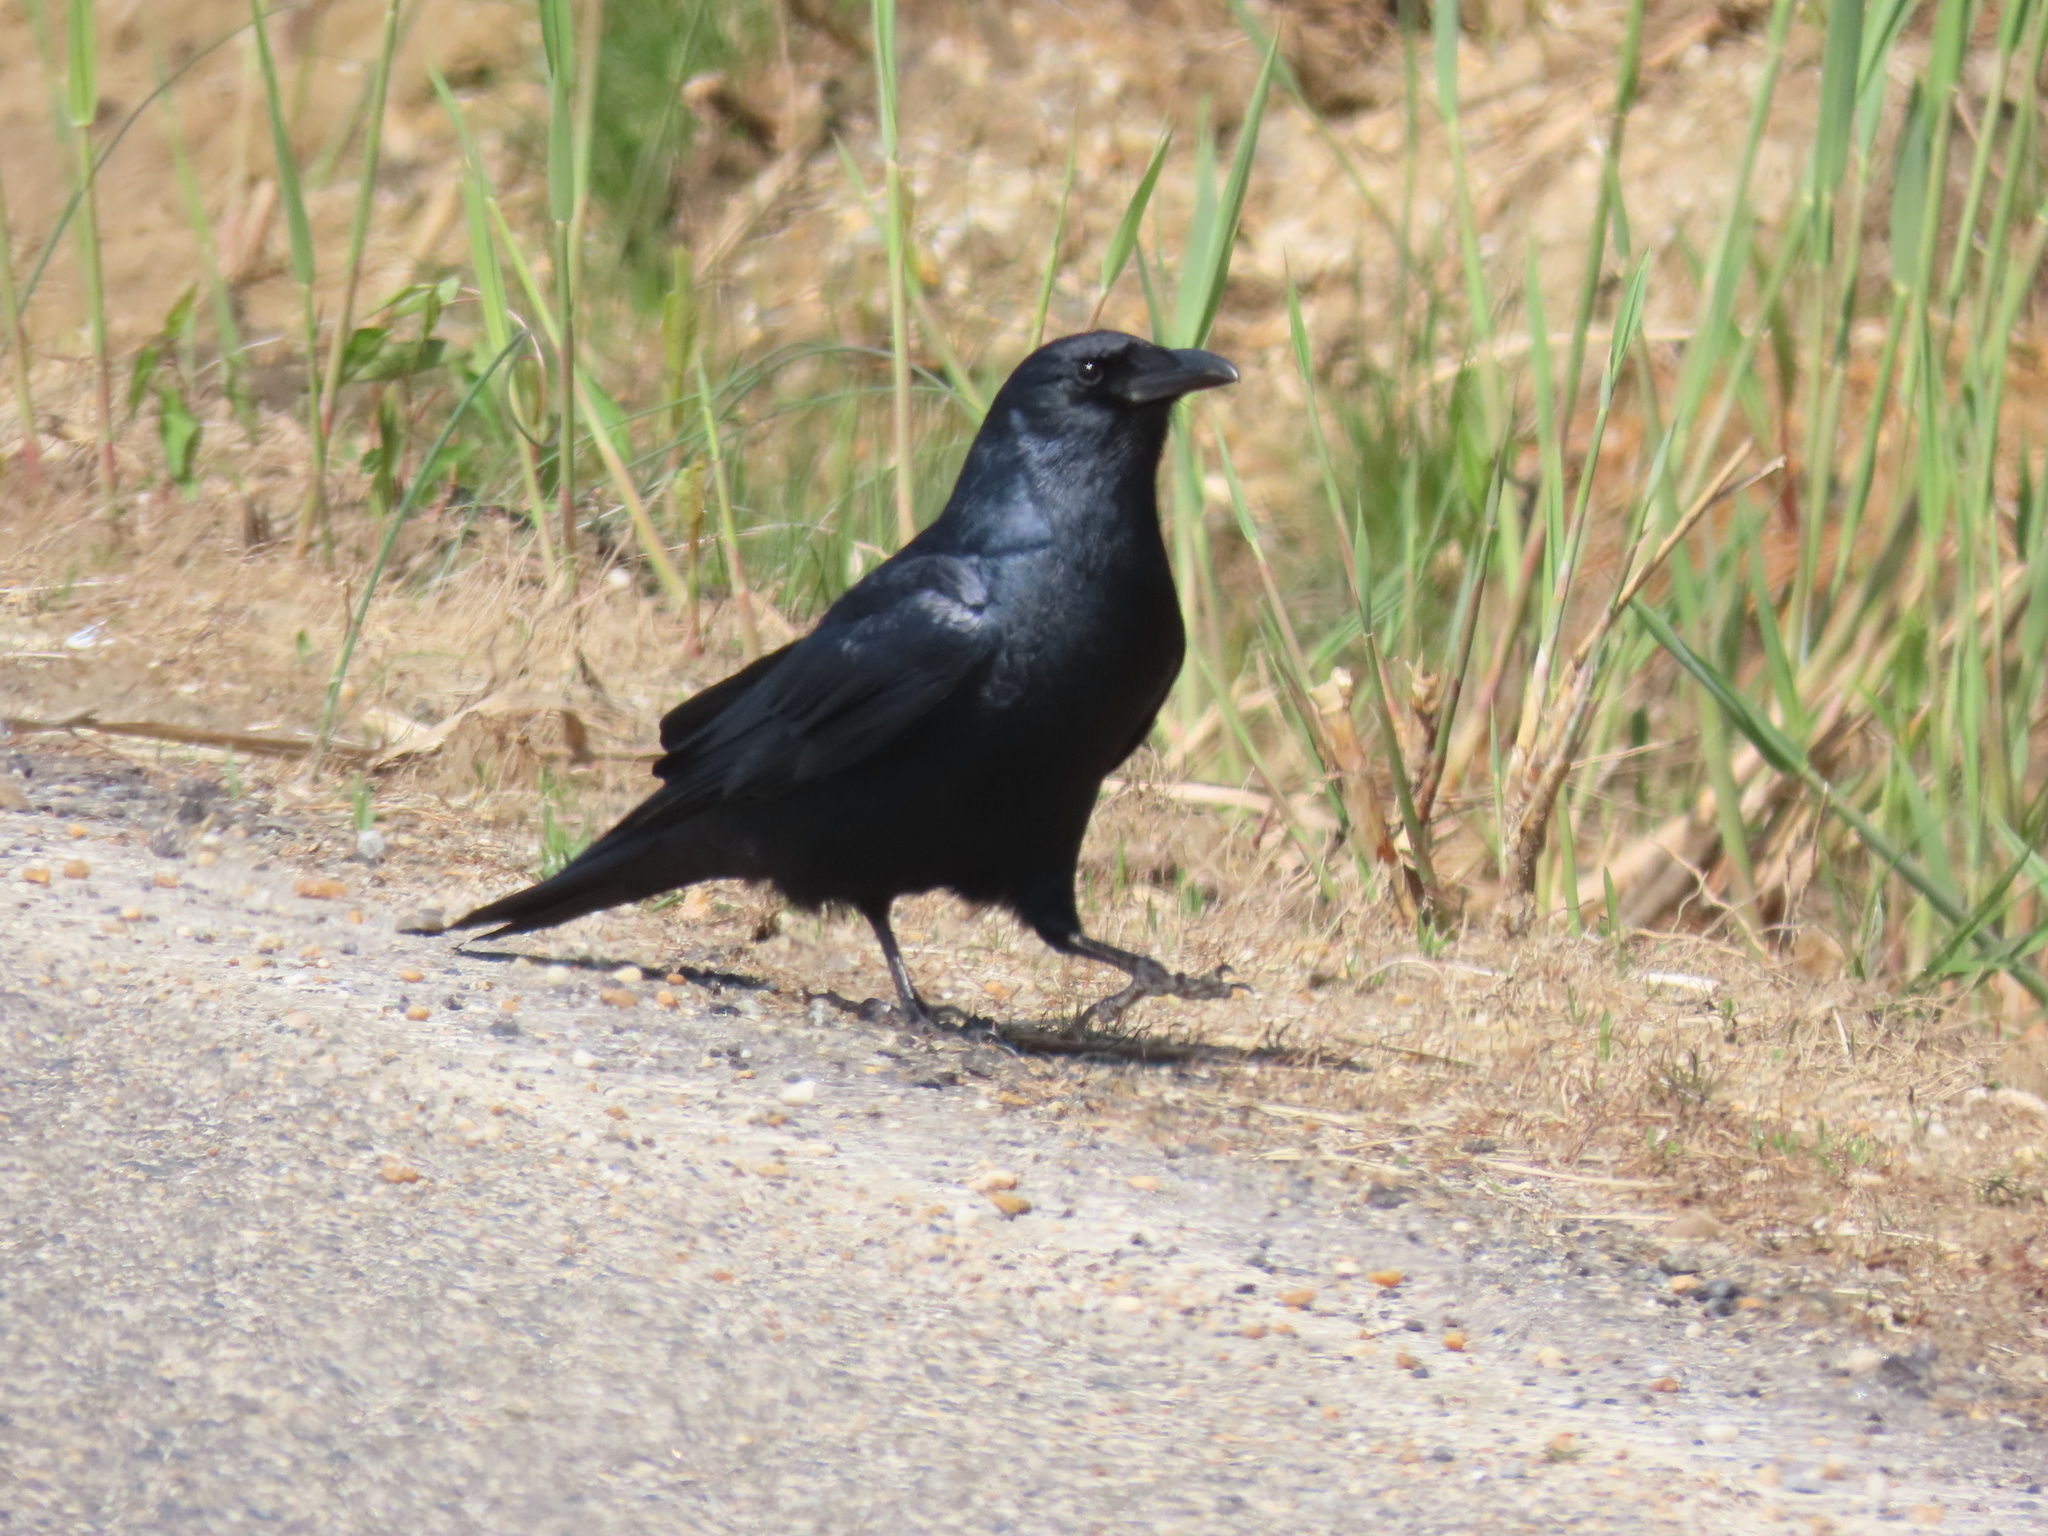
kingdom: Animalia
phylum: Chordata
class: Aves
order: Passeriformes
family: Corvidae
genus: Corvus
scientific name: Corvus ossifragus
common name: Fish crow
